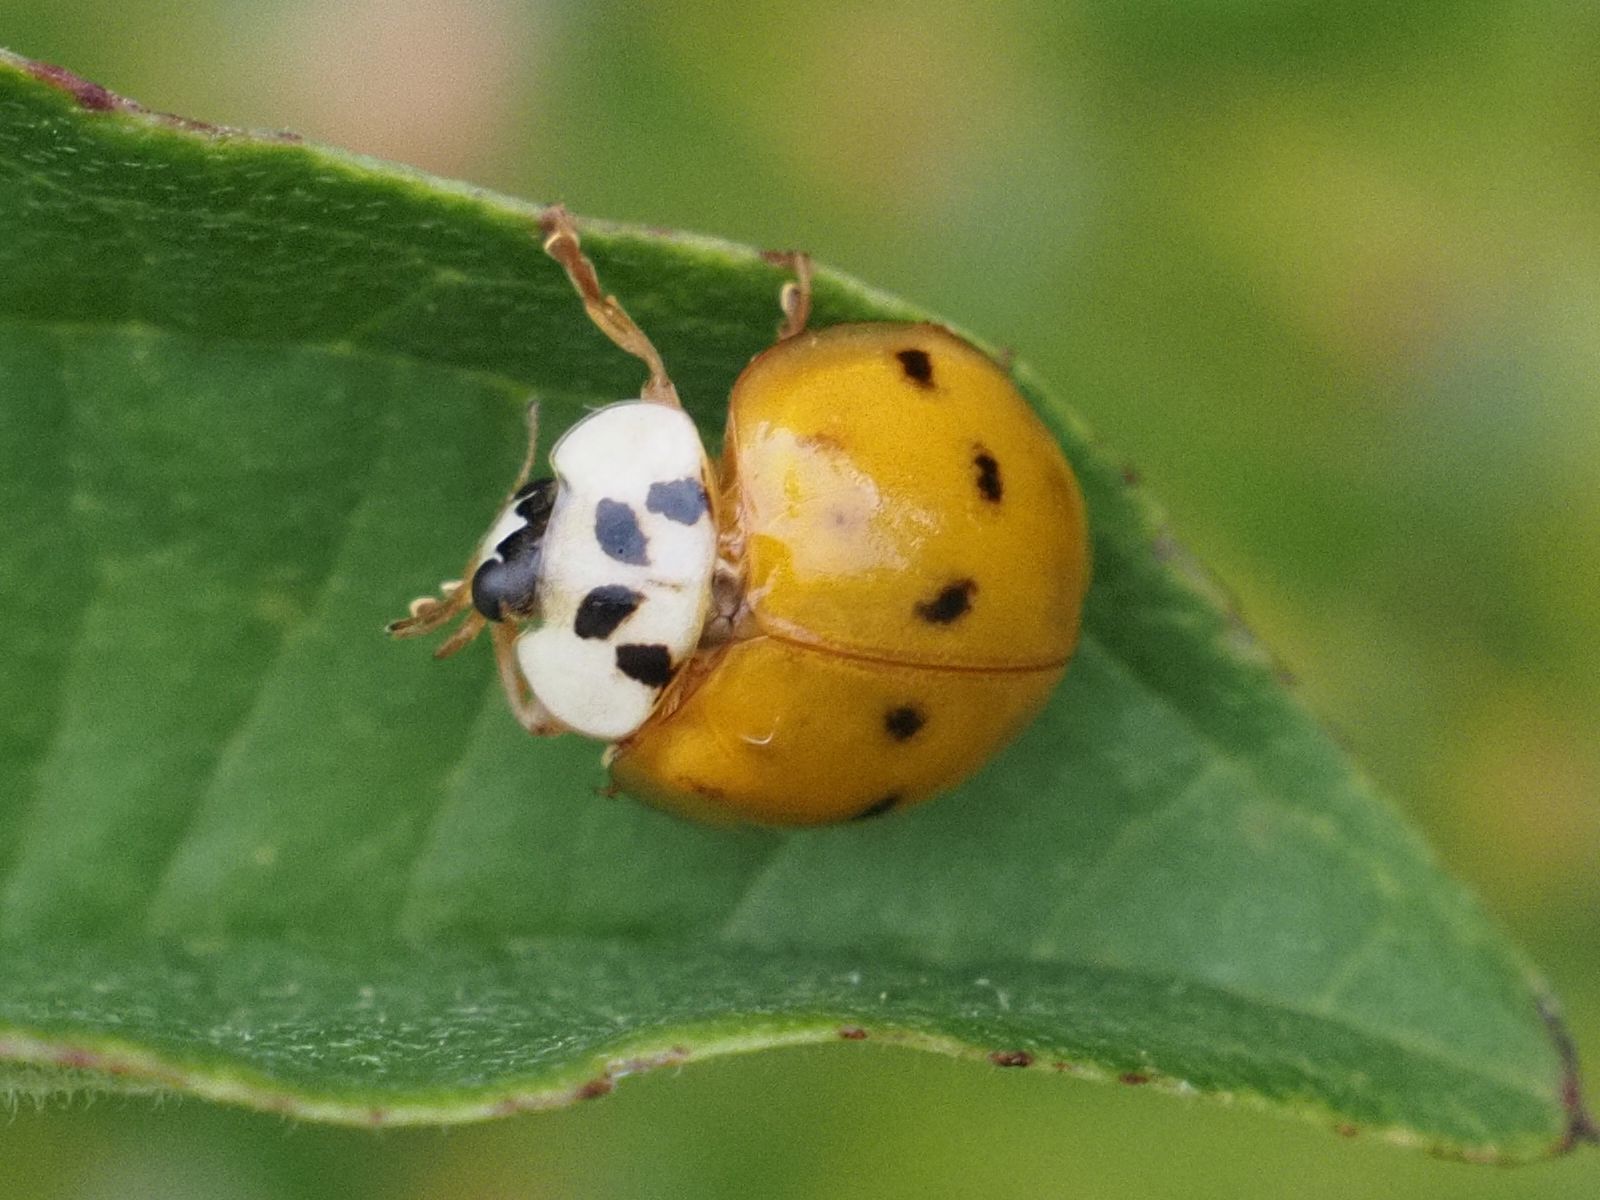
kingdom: Animalia
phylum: Arthropoda
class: Insecta
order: Coleoptera
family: Coccinellidae
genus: Harmonia
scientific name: Harmonia axyridis
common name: Harlequin ladybird
